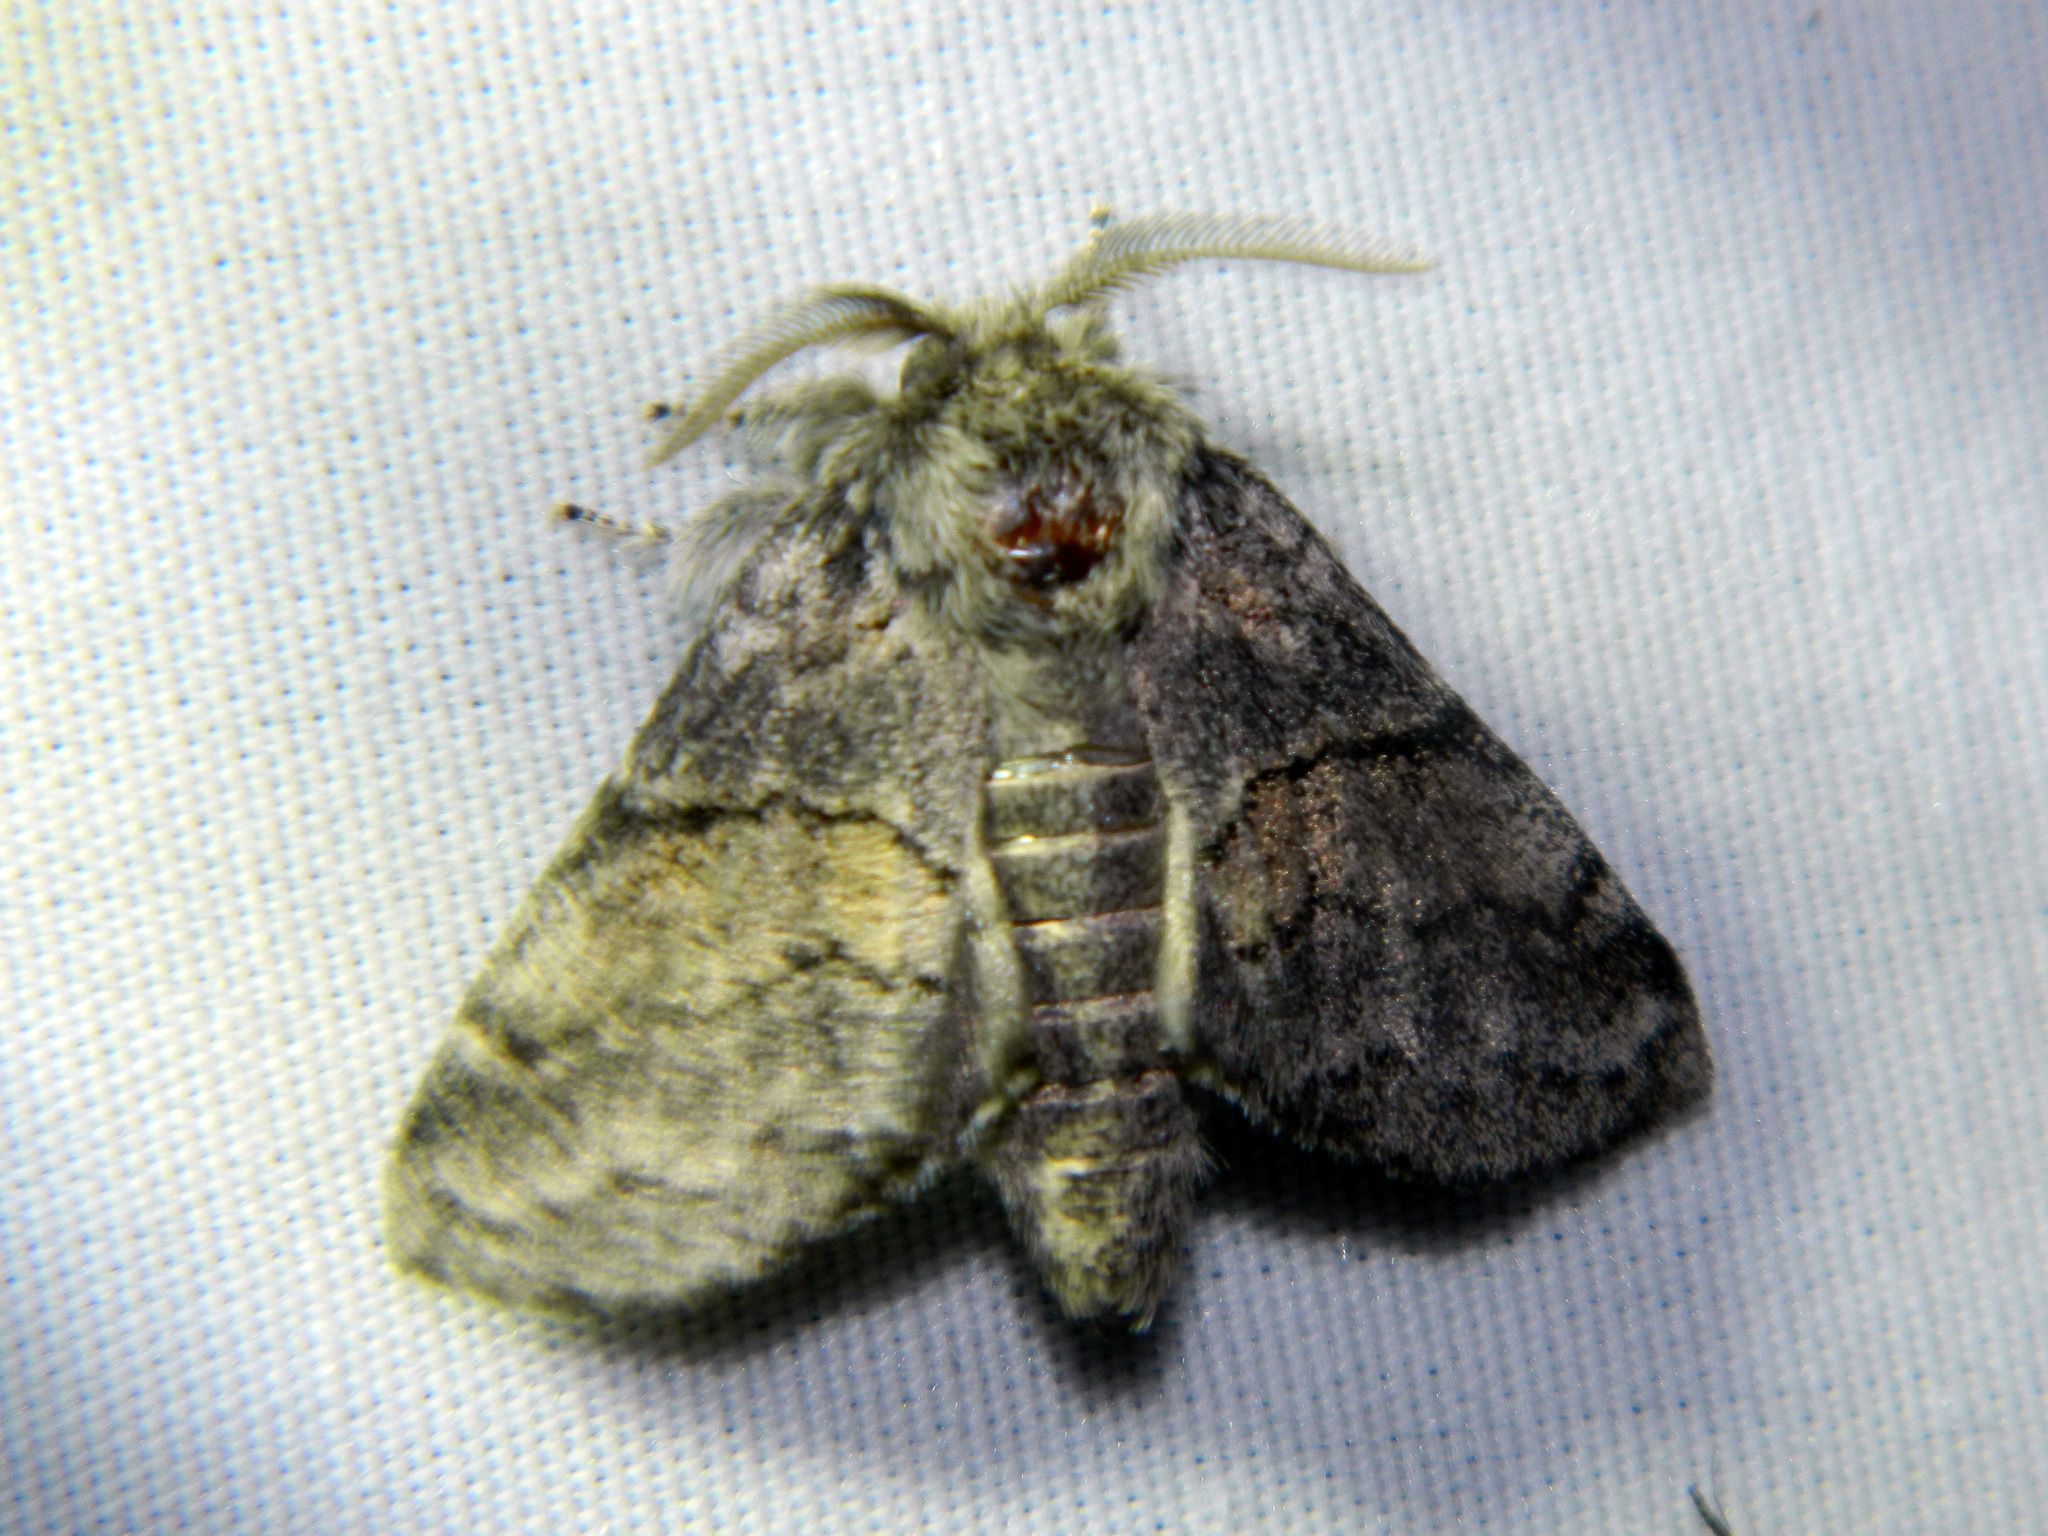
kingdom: Animalia
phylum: Arthropoda
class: Insecta
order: Lepidoptera
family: Notodontidae
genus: Gluphisia
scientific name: Gluphisia septentrionis
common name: Common gluphisia
